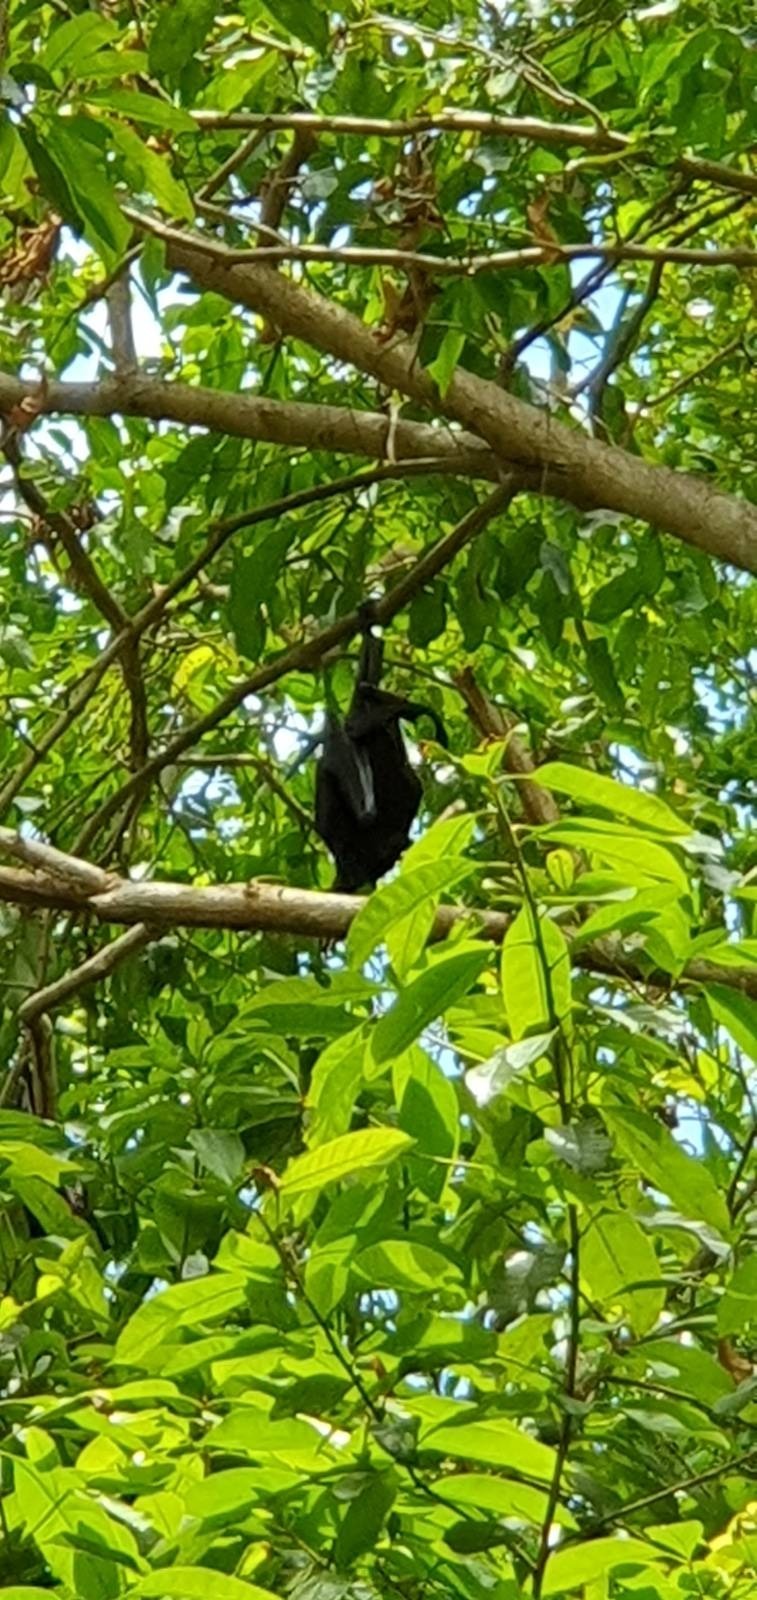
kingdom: Animalia
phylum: Chordata
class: Mammalia
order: Chiroptera
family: Pteropodidae
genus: Pteropus
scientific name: Pteropus alecto
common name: Black flying fox
